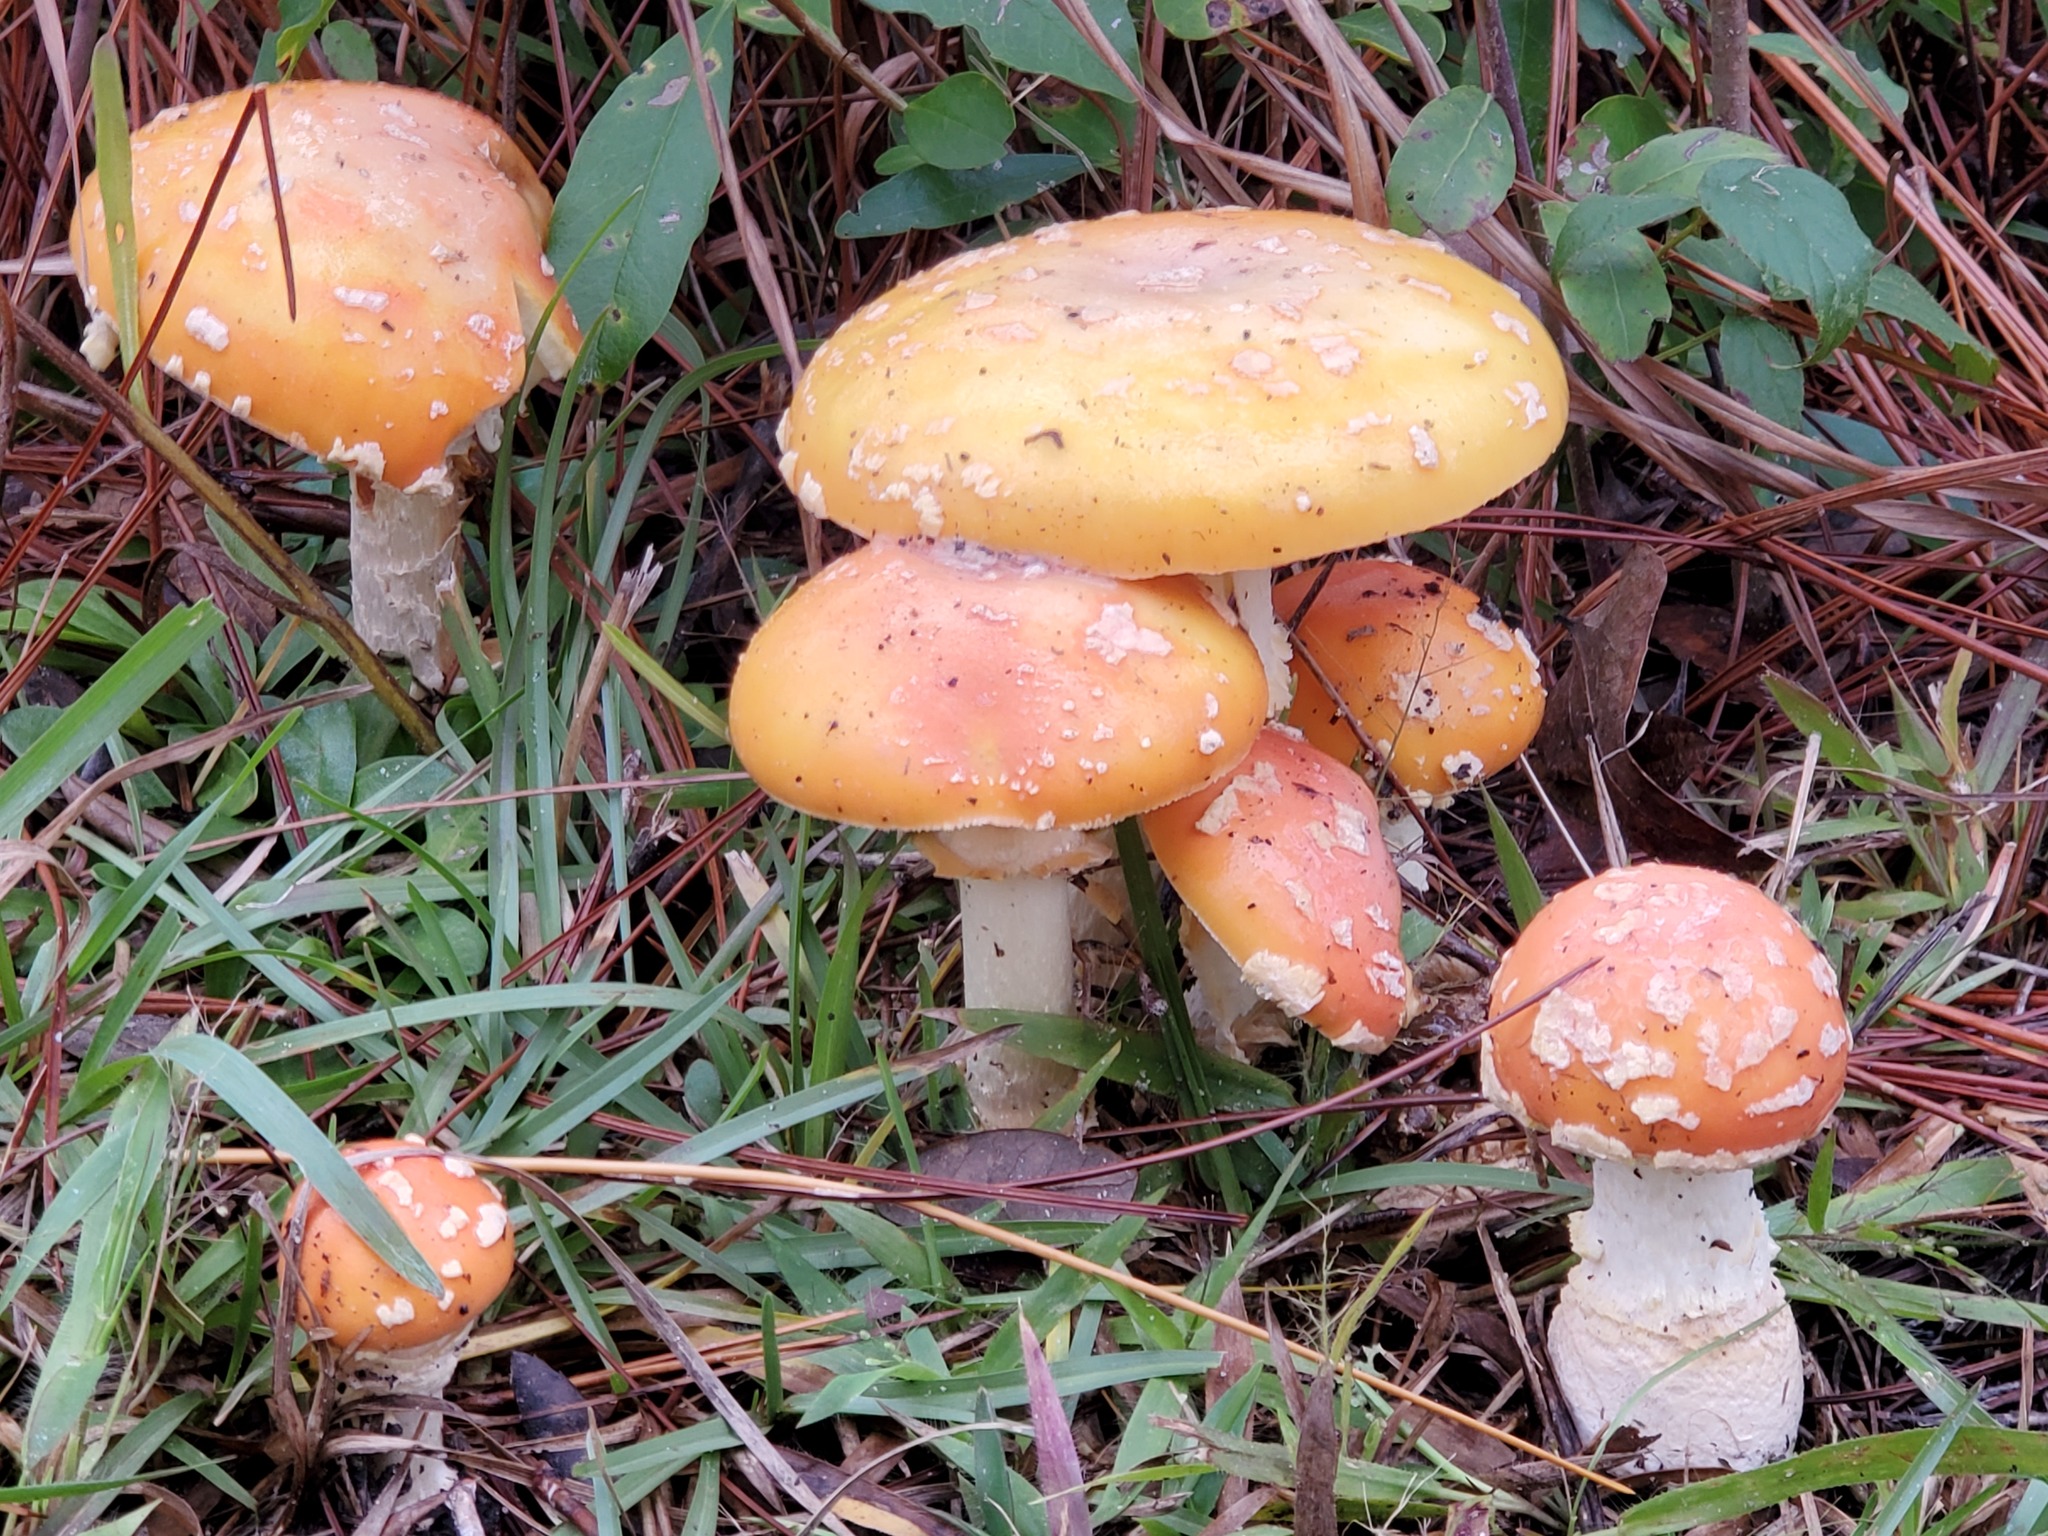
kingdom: Fungi
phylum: Basidiomycota
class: Agaricomycetes
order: Agaricales
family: Amanitaceae
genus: Amanita
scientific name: Amanita persicina
